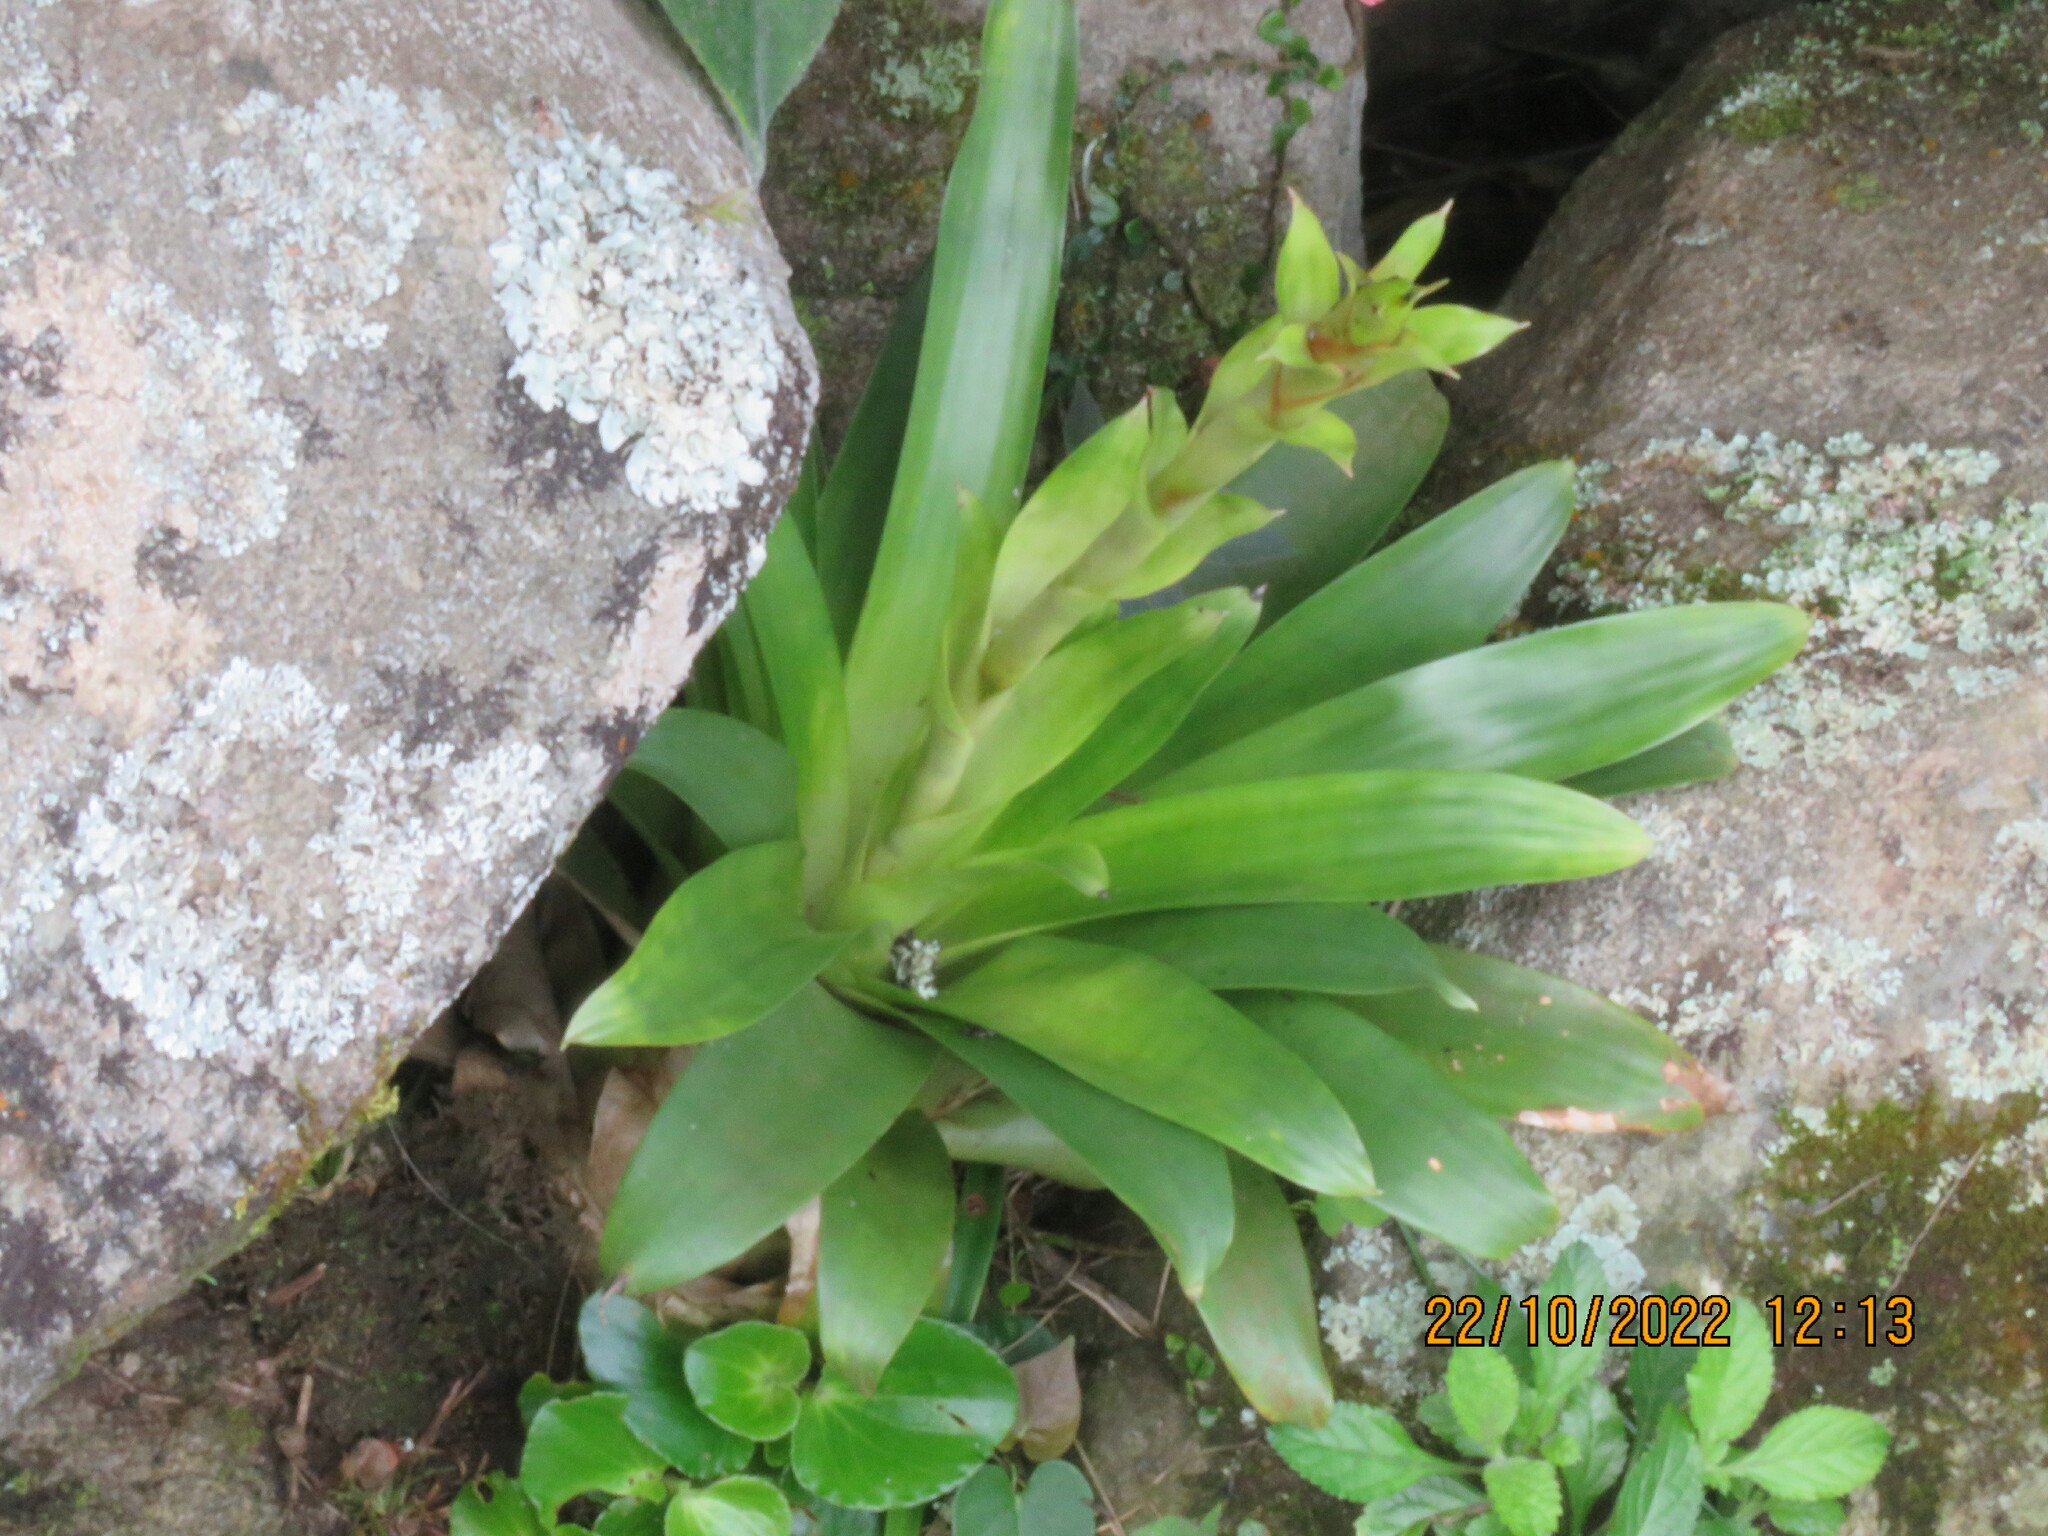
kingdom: Plantae
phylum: Tracheophyta
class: Liliopsida
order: Poales
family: Bromeliaceae
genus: Vriesea
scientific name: Vriesea friburgensis
